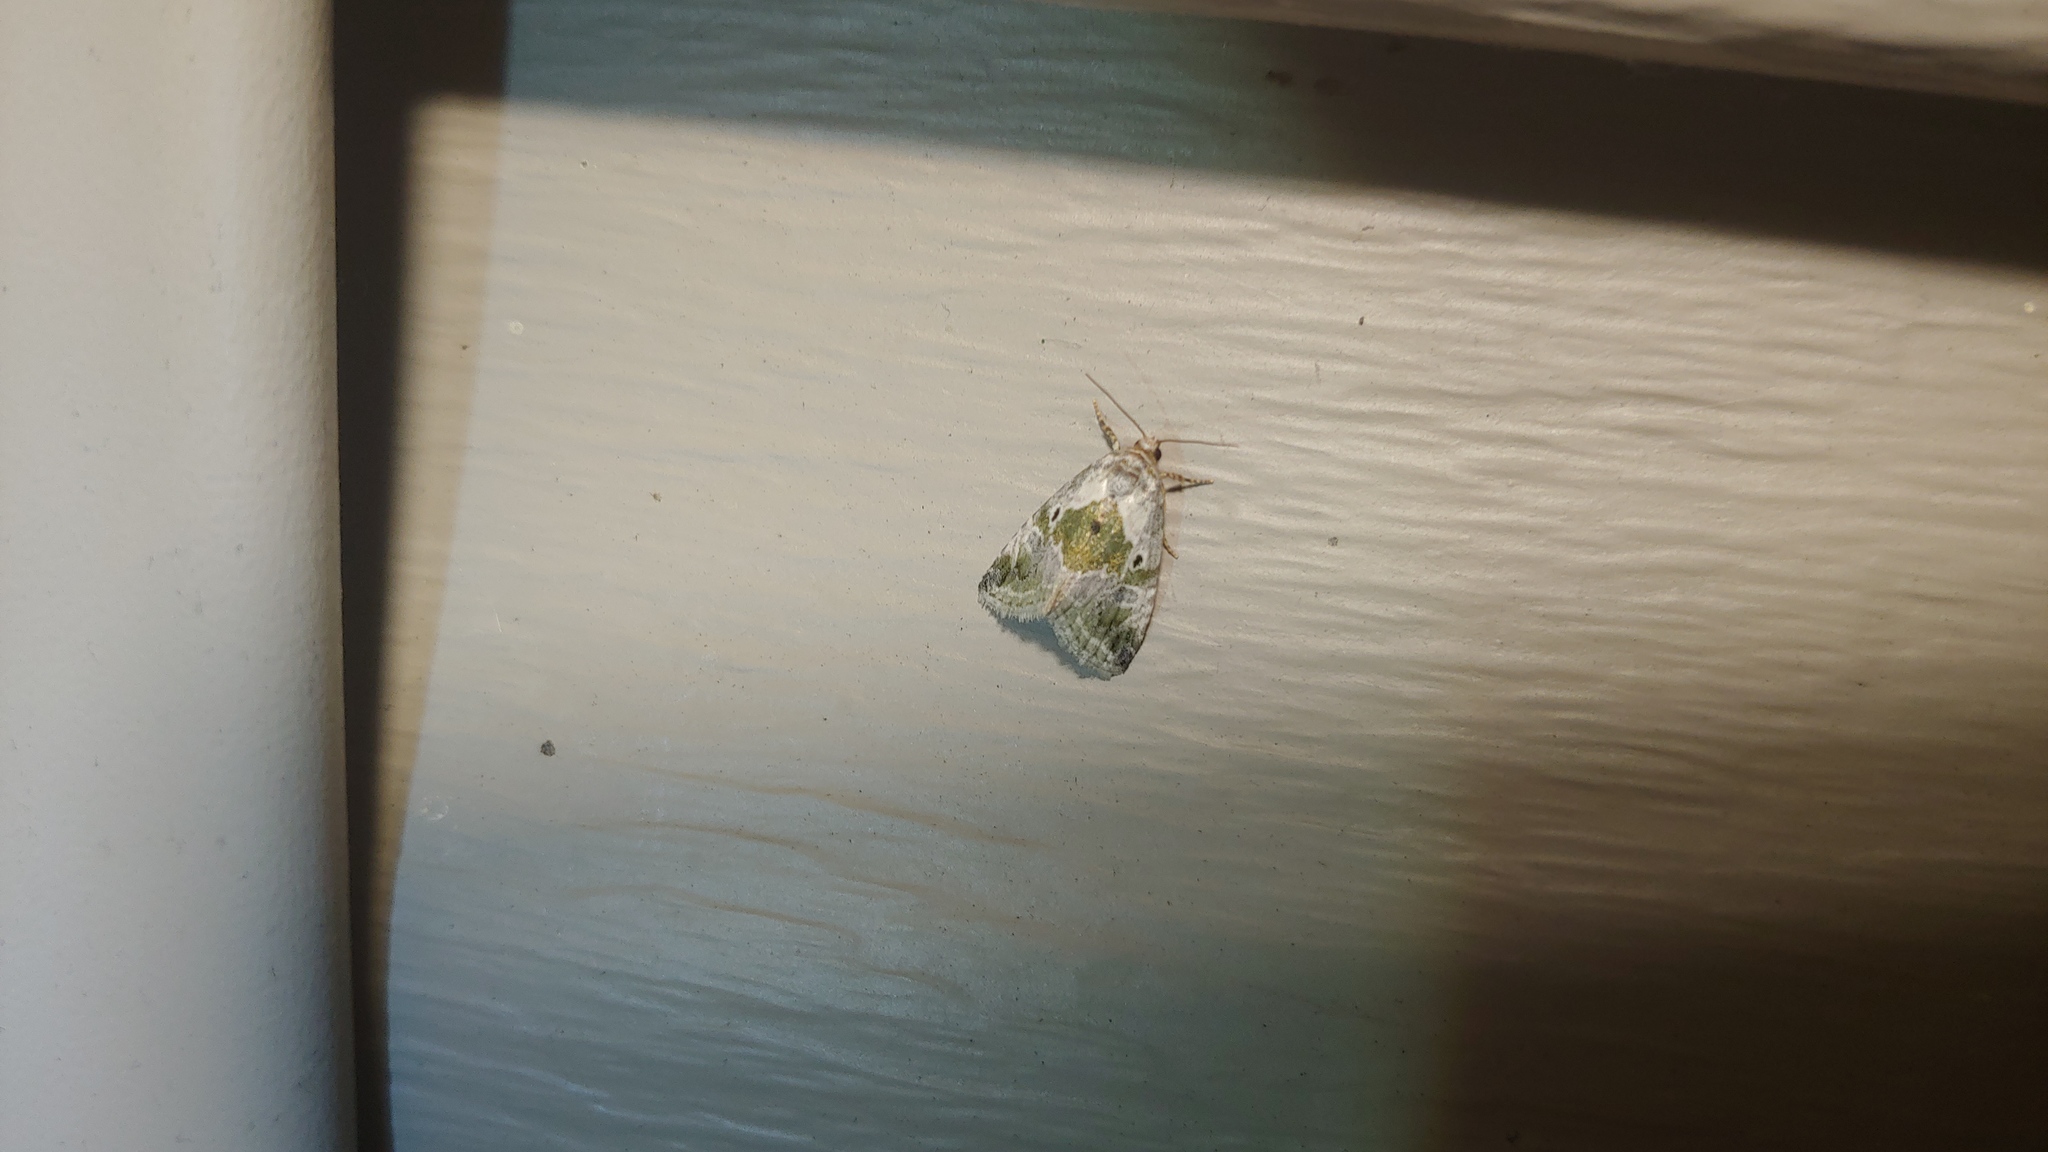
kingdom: Animalia
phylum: Arthropoda
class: Insecta
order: Lepidoptera
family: Noctuidae
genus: Maliattha
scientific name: Maliattha synochitis
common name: Black-dotted glyph
